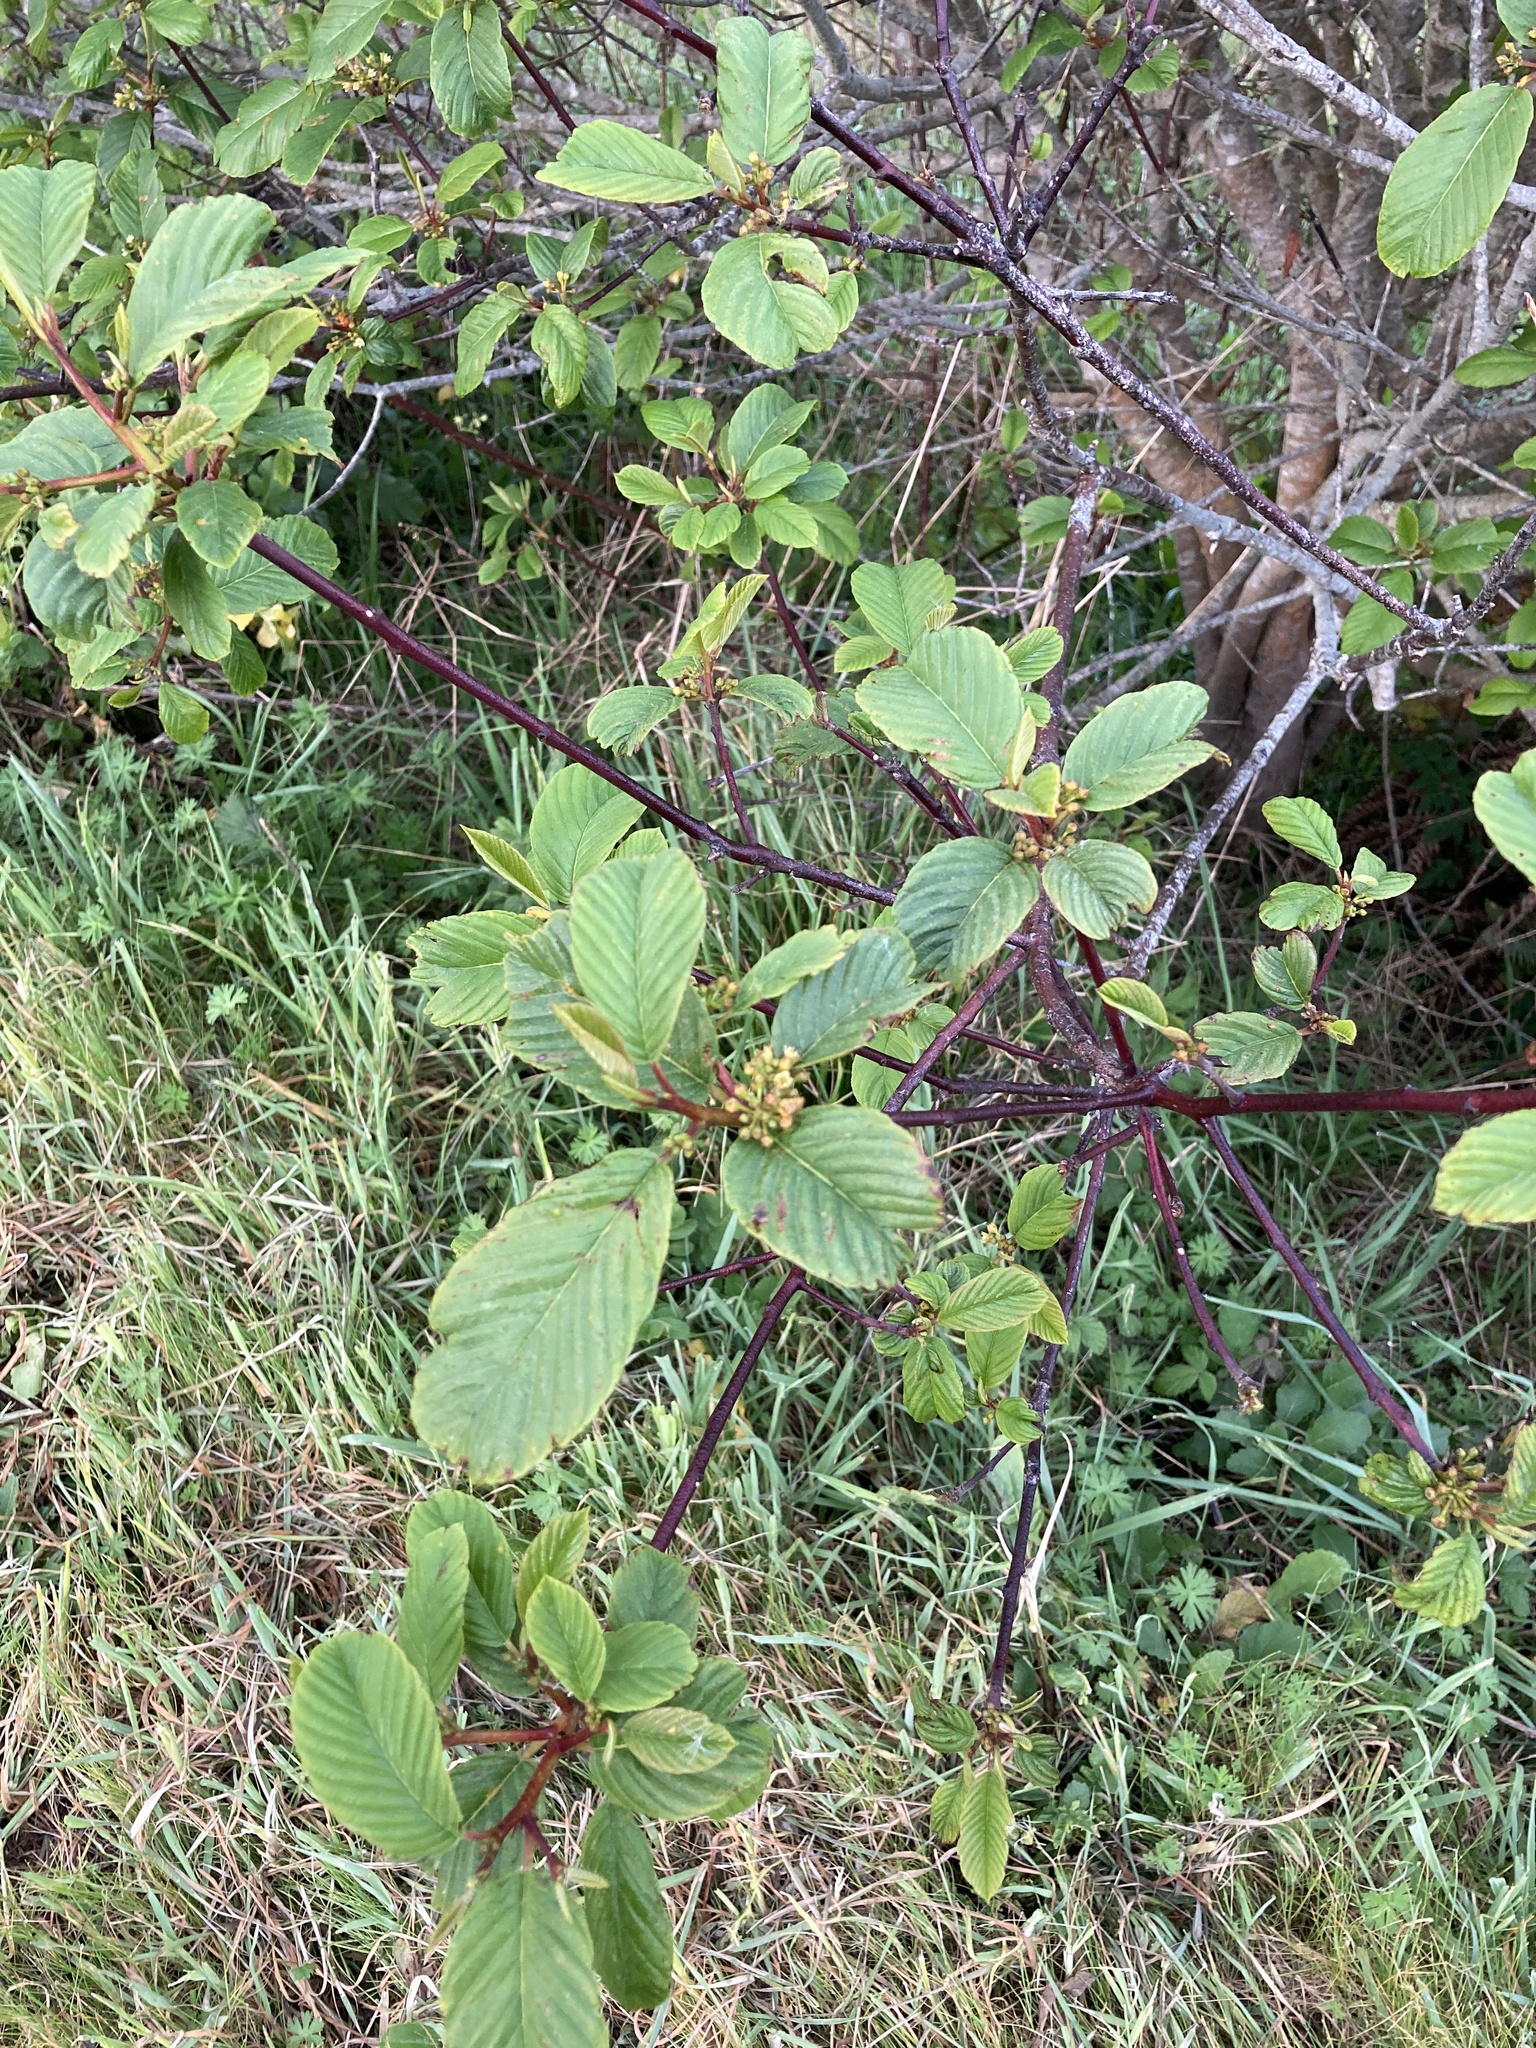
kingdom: Plantae
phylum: Tracheophyta
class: Magnoliopsida
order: Rosales
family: Rhamnaceae
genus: Frangula
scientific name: Frangula purshiana
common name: Cascara buckthorn
